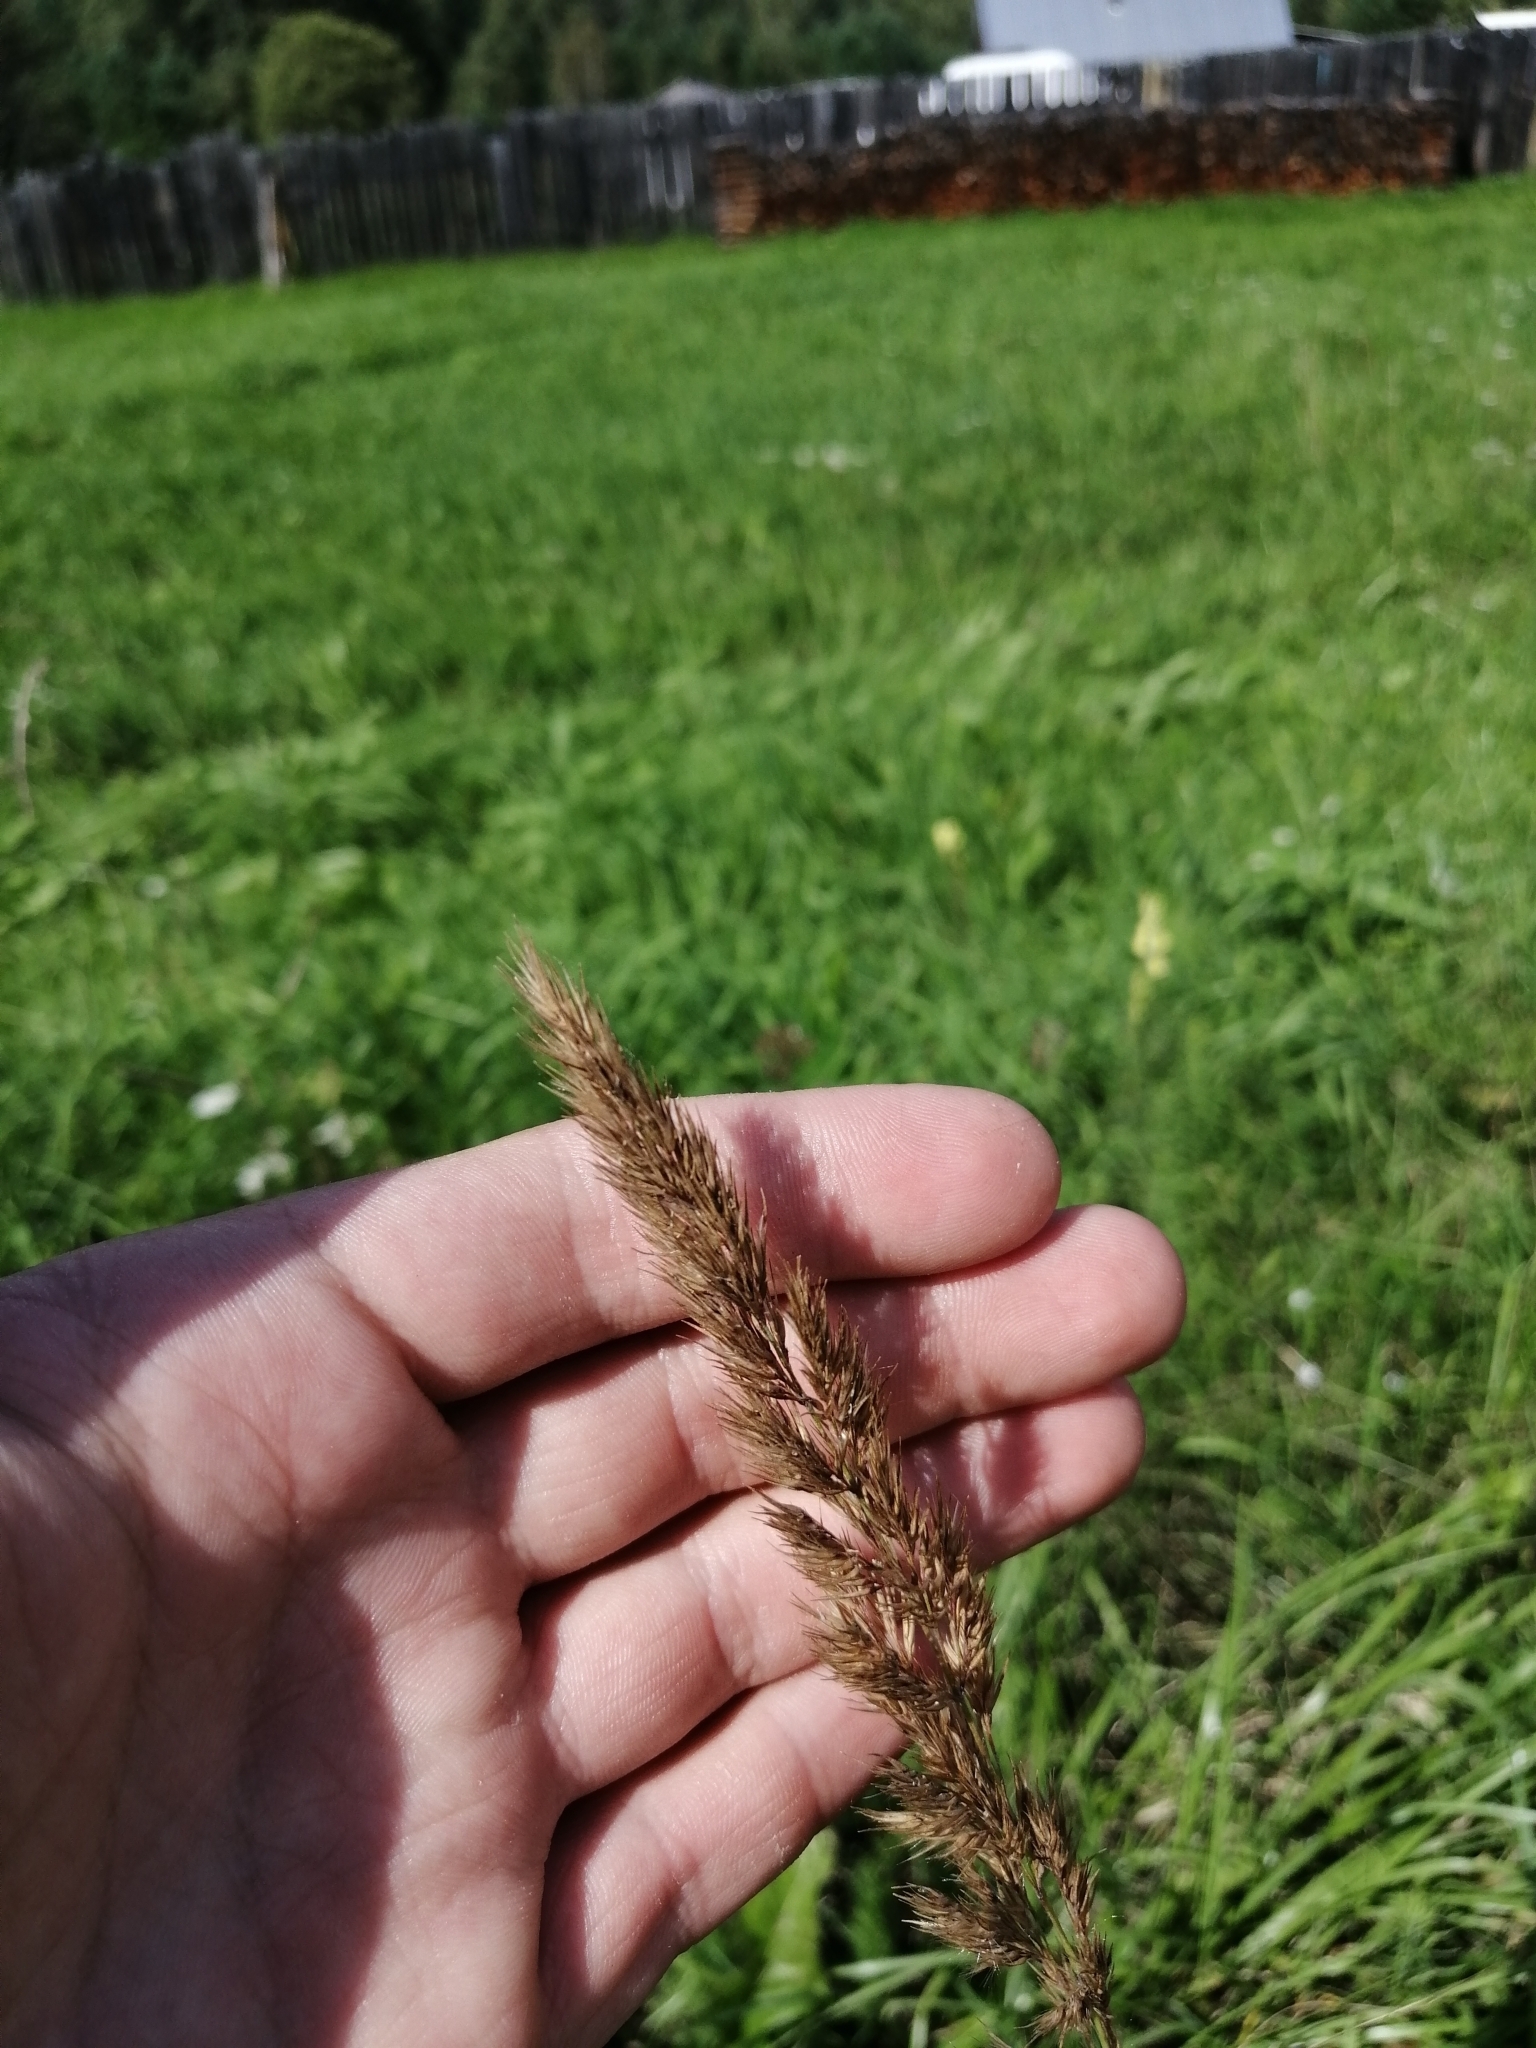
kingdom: Plantae
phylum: Tracheophyta
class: Liliopsida
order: Poales
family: Poaceae
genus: Calamagrostis
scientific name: Calamagrostis epigejos
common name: Wood small-reed
